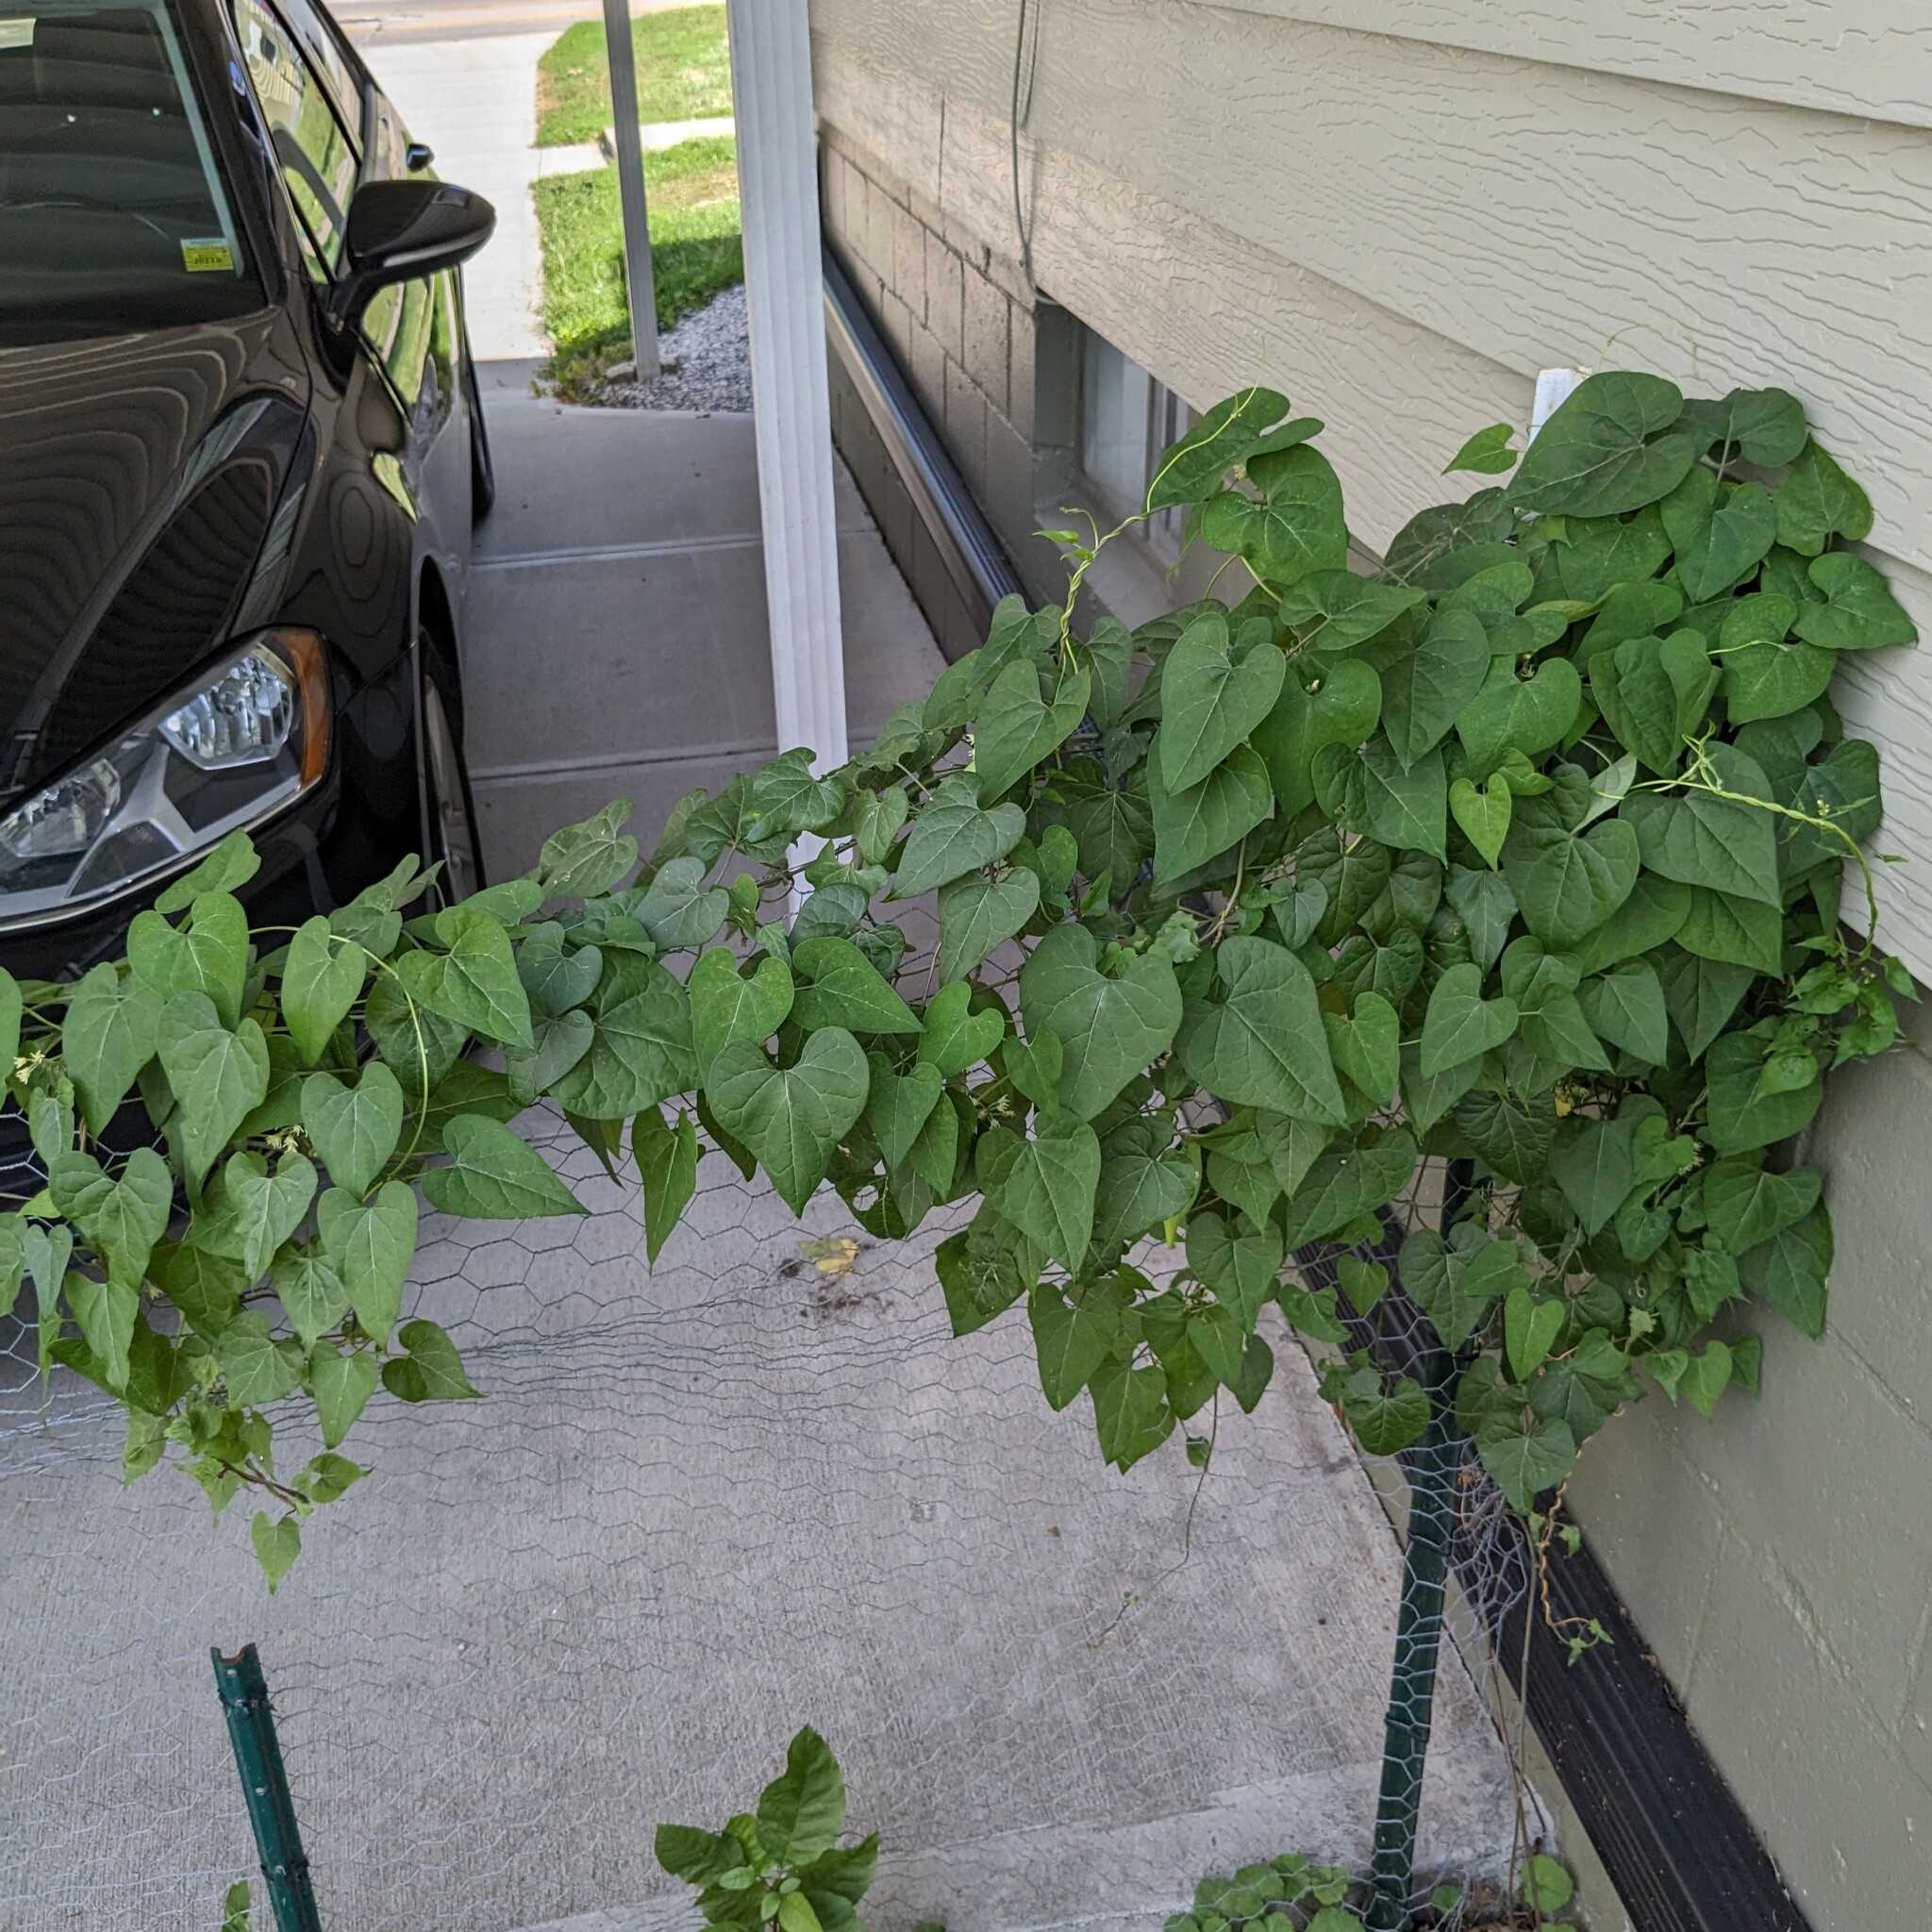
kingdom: Plantae
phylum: Tracheophyta
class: Magnoliopsida
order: Gentianales
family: Apocynaceae
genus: Cynanchum
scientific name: Cynanchum laeve
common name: Sandvine
